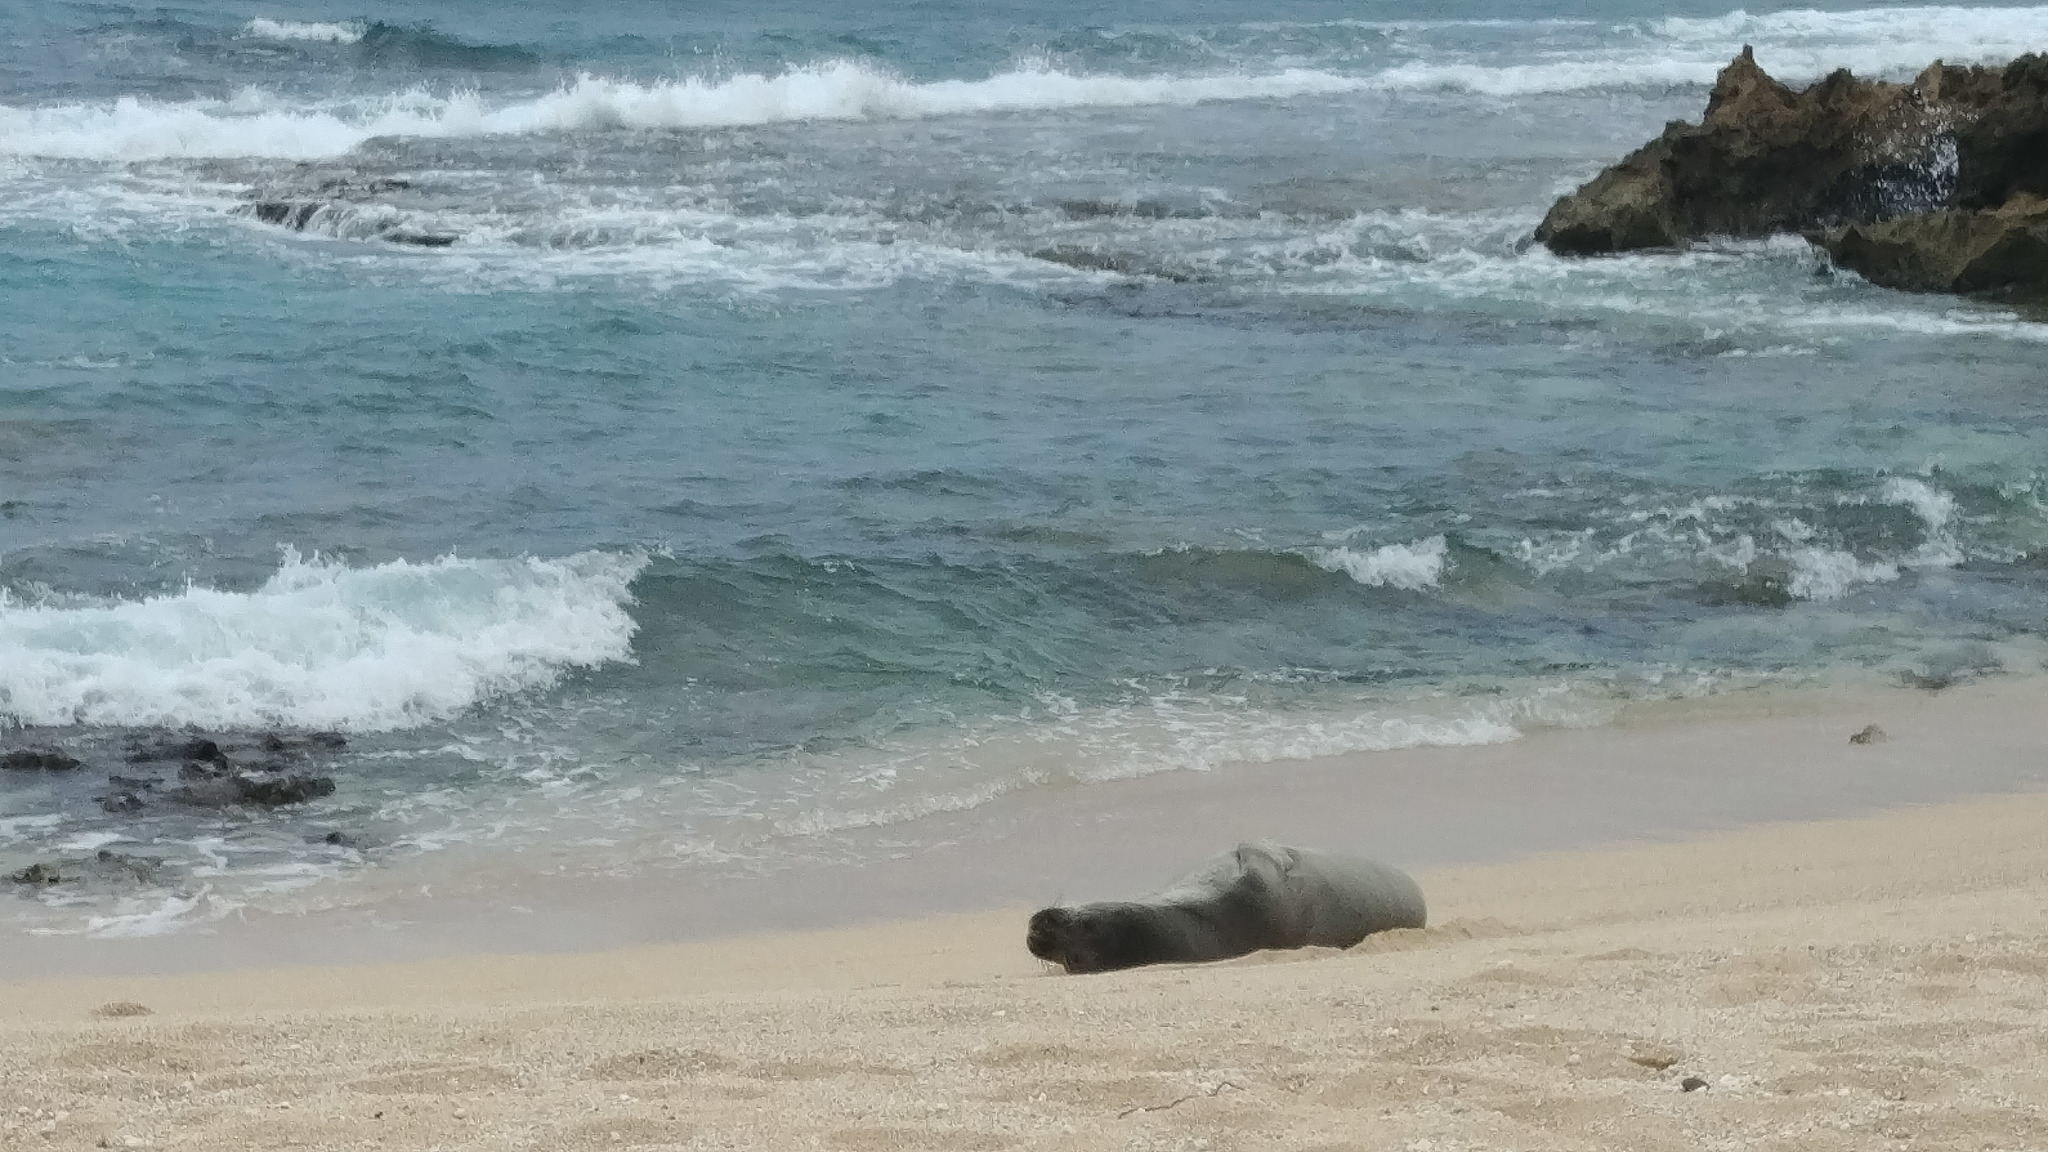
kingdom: Animalia
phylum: Chordata
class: Mammalia
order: Carnivora
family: Phocidae
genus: Neomonachus
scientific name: Neomonachus schauinslandi
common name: Hawaiian monk seal
